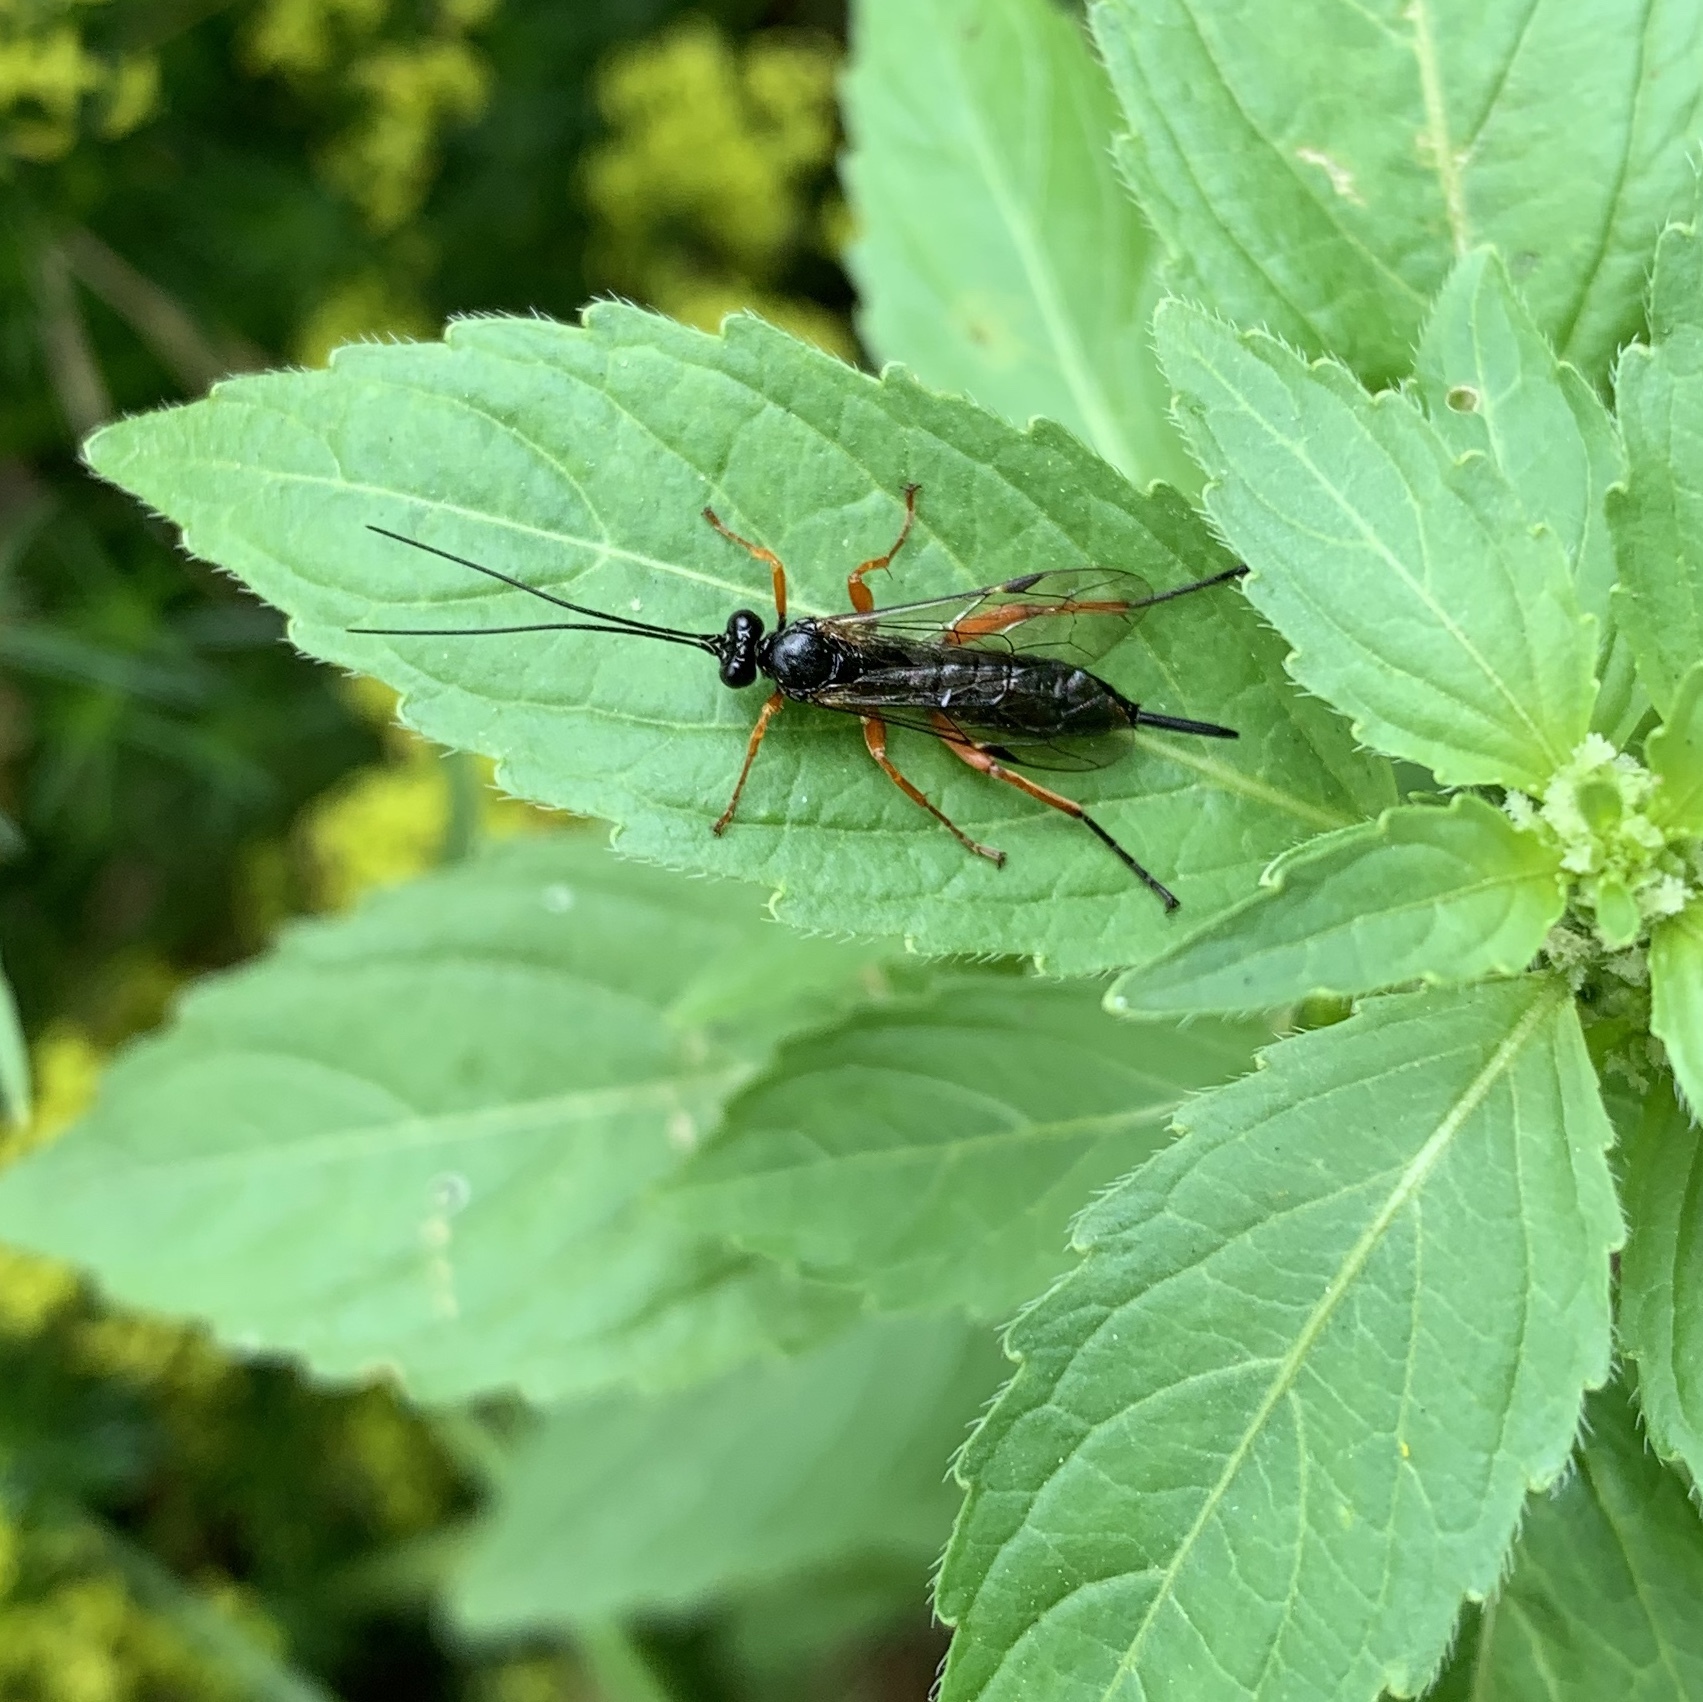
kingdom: Animalia
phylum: Arthropoda
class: Insecta
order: Hymenoptera
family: Ichneumonidae
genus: Pimpla
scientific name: Pimpla rufipes
